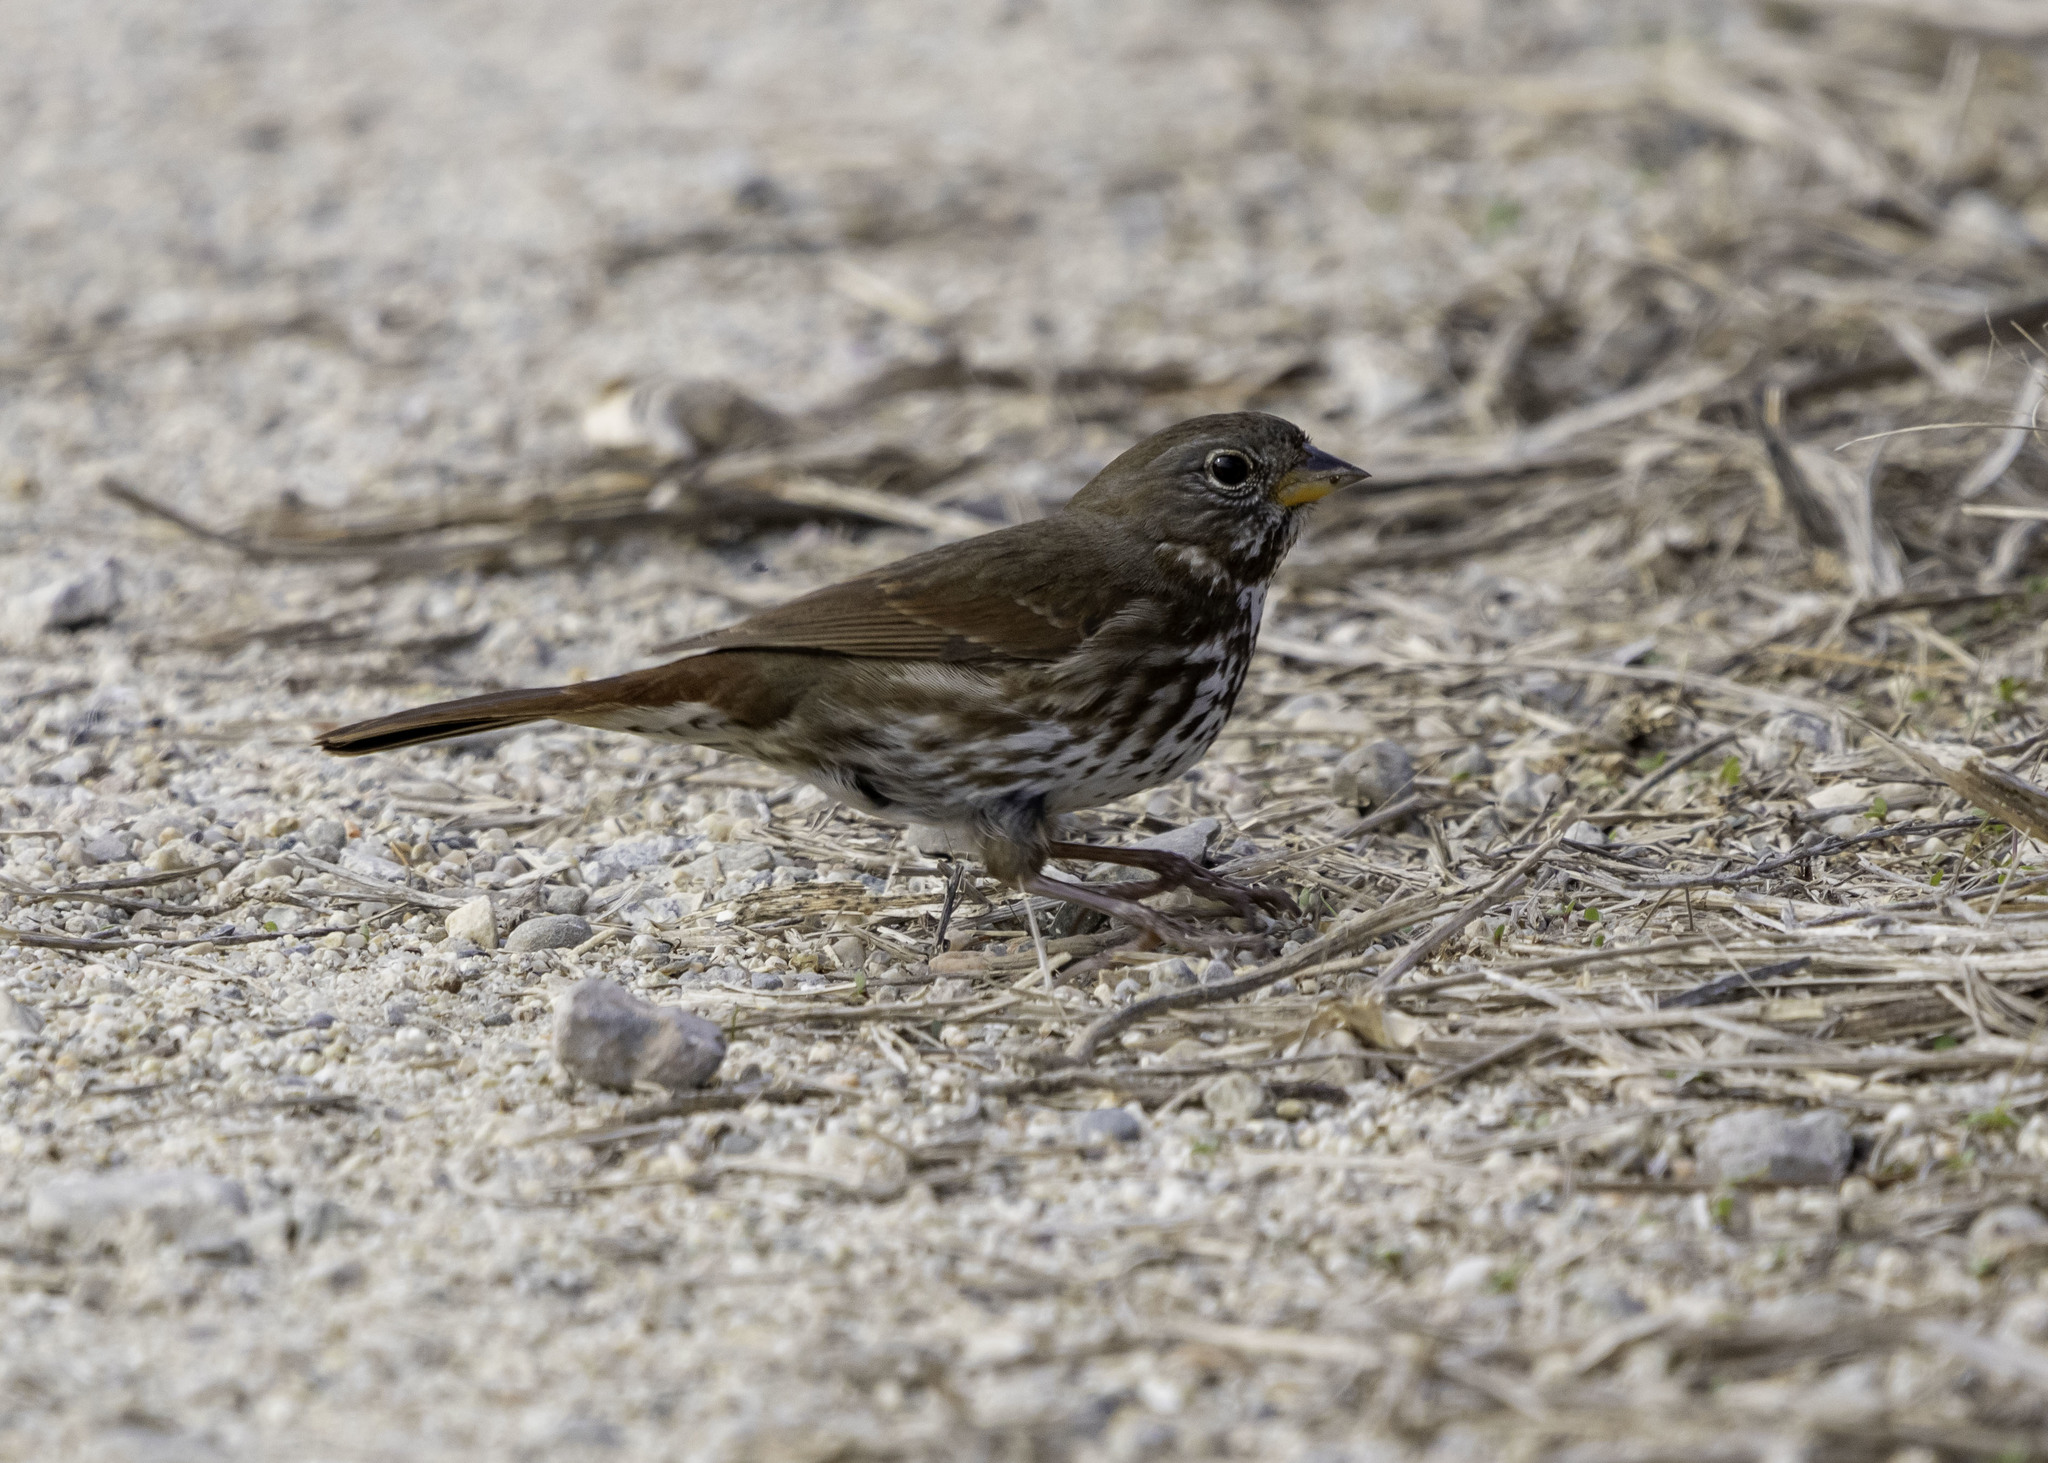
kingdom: Animalia
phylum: Chordata
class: Aves
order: Passeriformes
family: Passerellidae
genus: Passerella
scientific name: Passerella iliaca
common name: Fox sparrow
